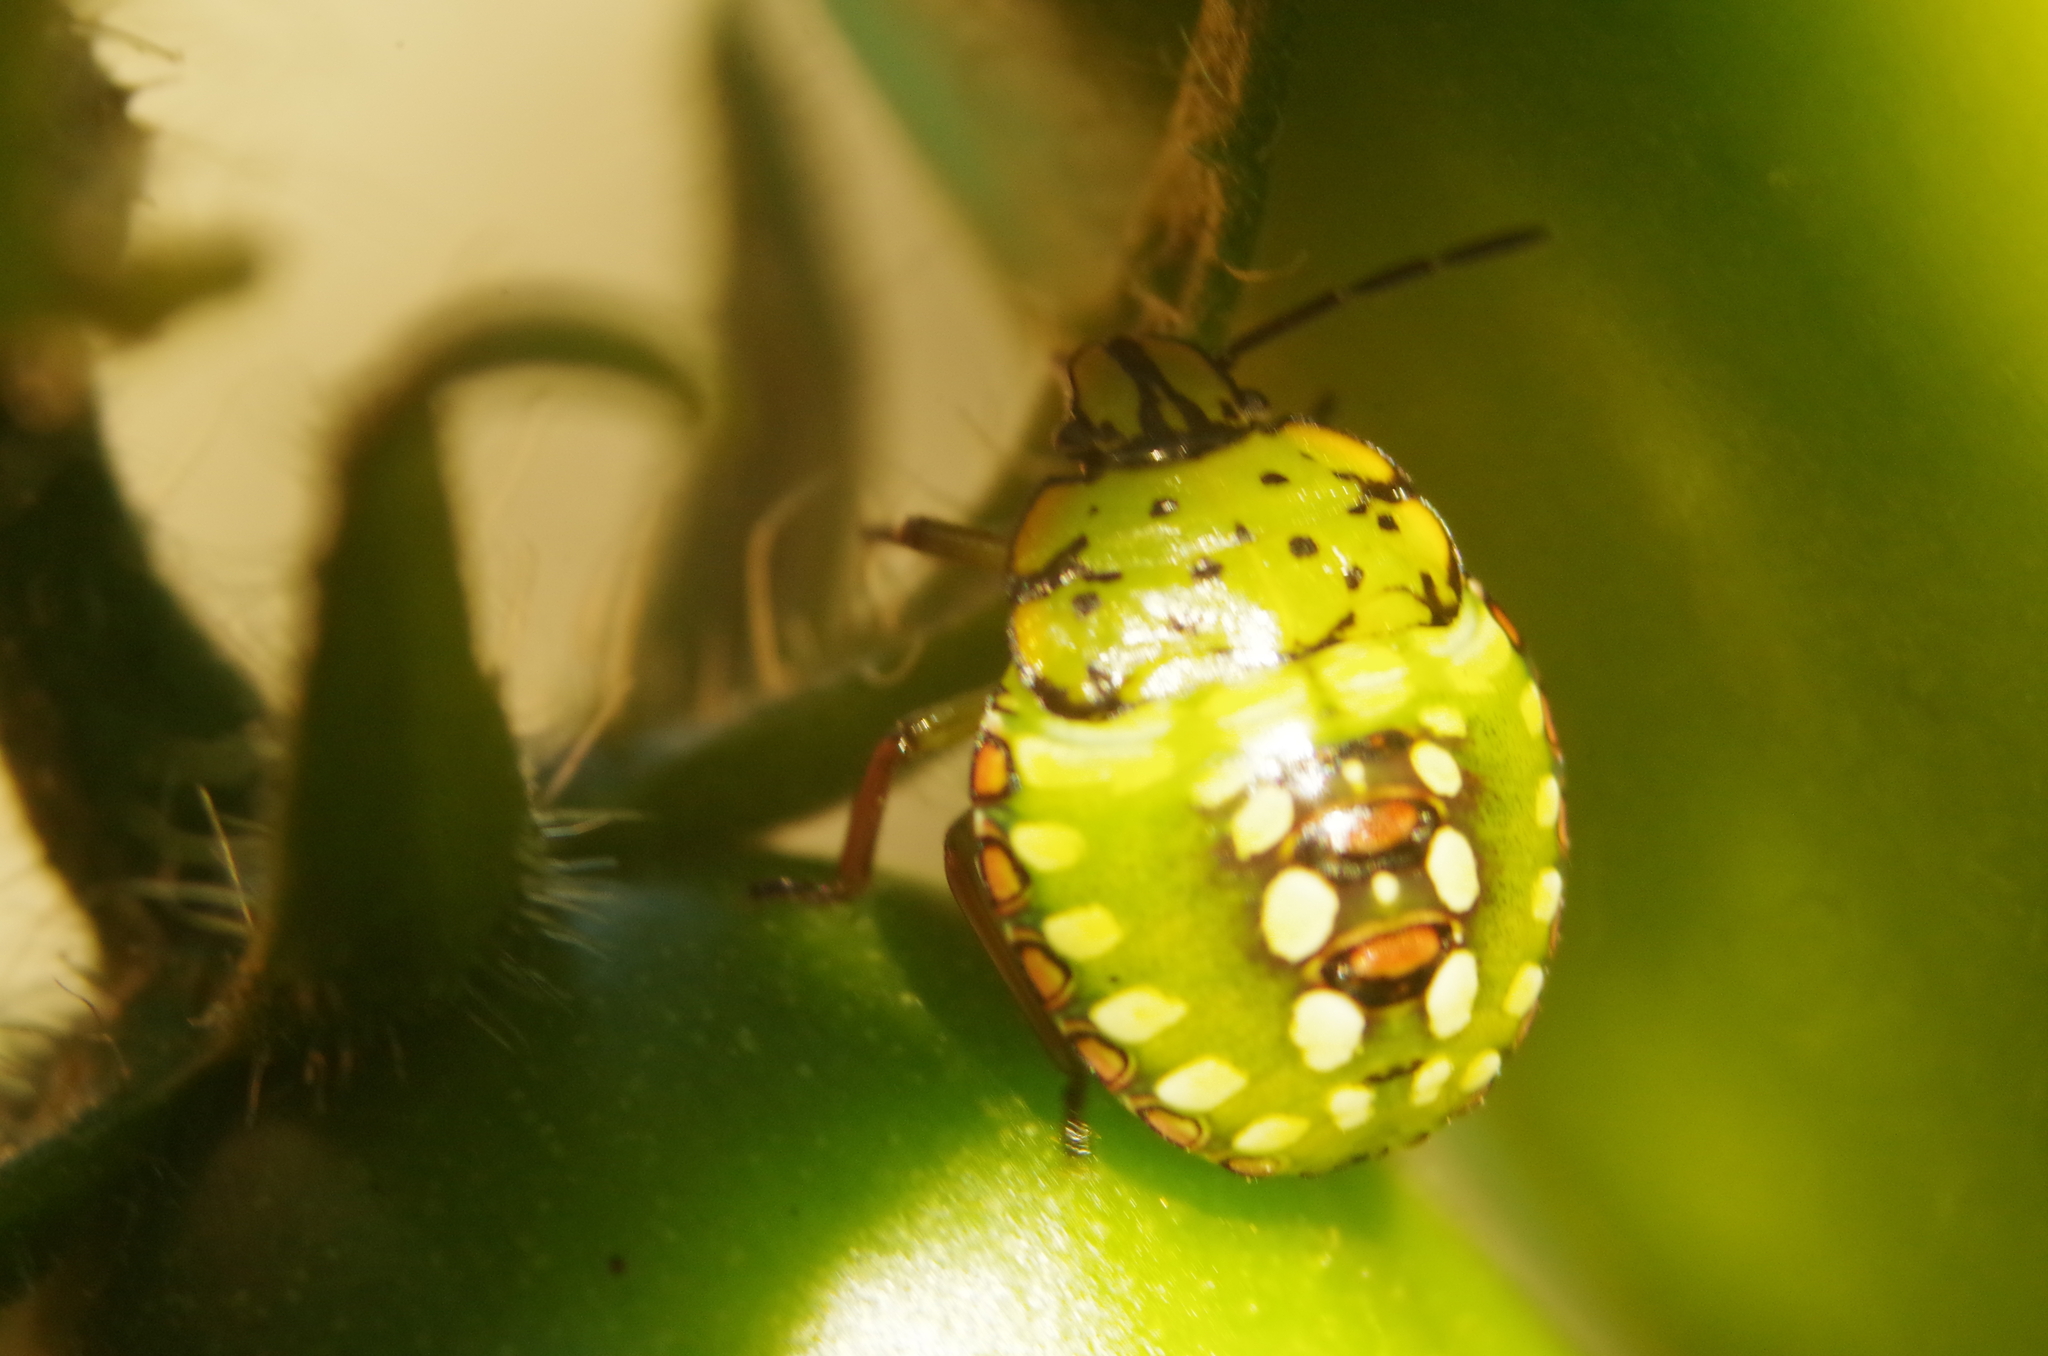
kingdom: Animalia
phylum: Arthropoda
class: Insecta
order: Hemiptera
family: Pentatomidae
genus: Nezara
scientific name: Nezara viridula
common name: Southern green stink bug
